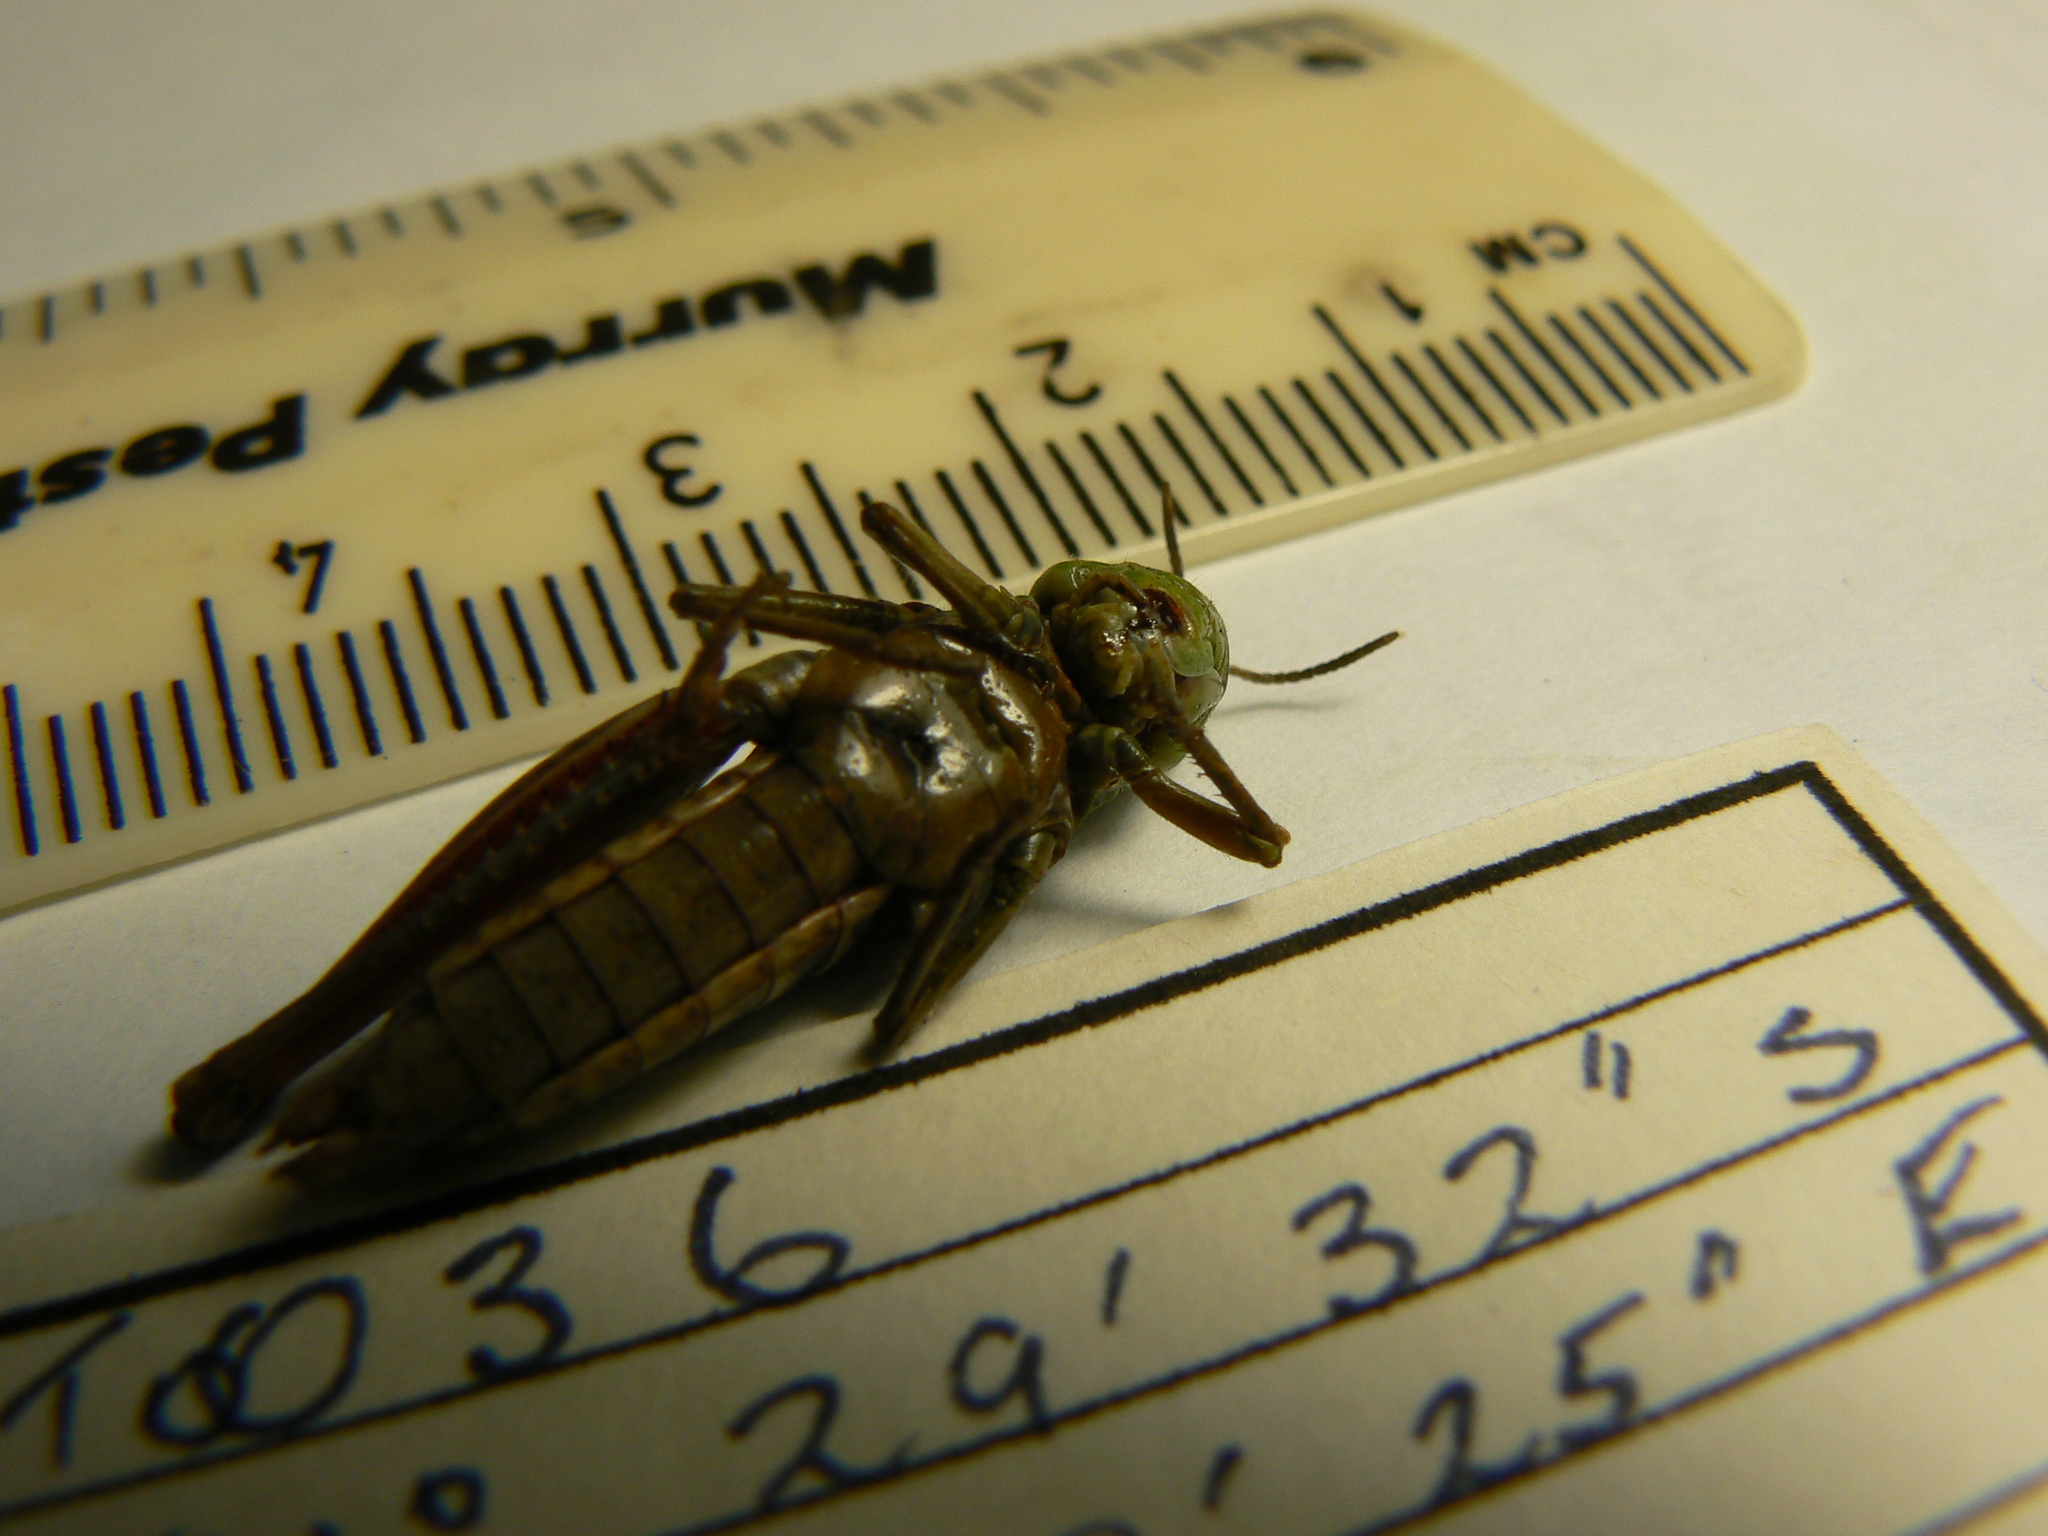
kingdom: Animalia
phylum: Arthropoda
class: Insecta
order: Orthoptera
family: Acrididae
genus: Kosciuscola
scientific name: Kosciuscola tasmanicus
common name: Tasmanian skyhopper
